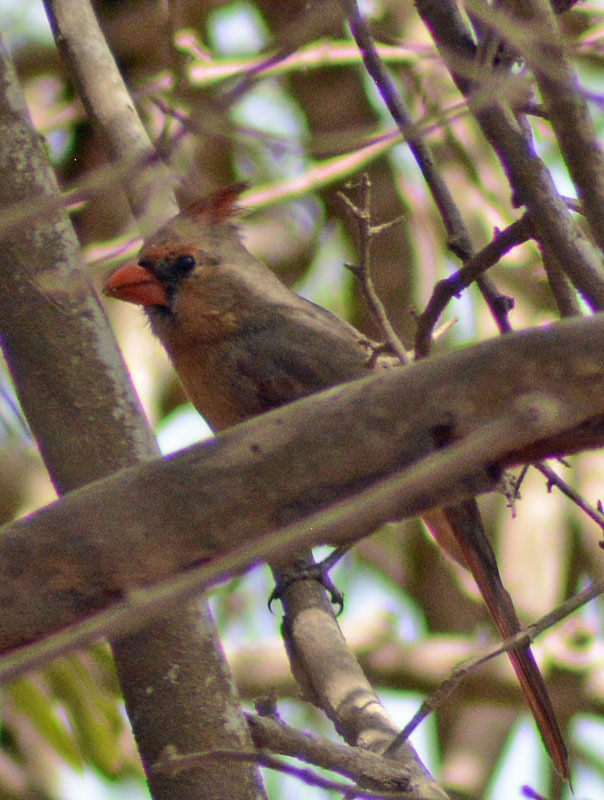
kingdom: Animalia
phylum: Chordata
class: Aves
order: Passeriformes
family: Cardinalidae
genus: Cardinalis
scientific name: Cardinalis cardinalis
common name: Northern cardinal
